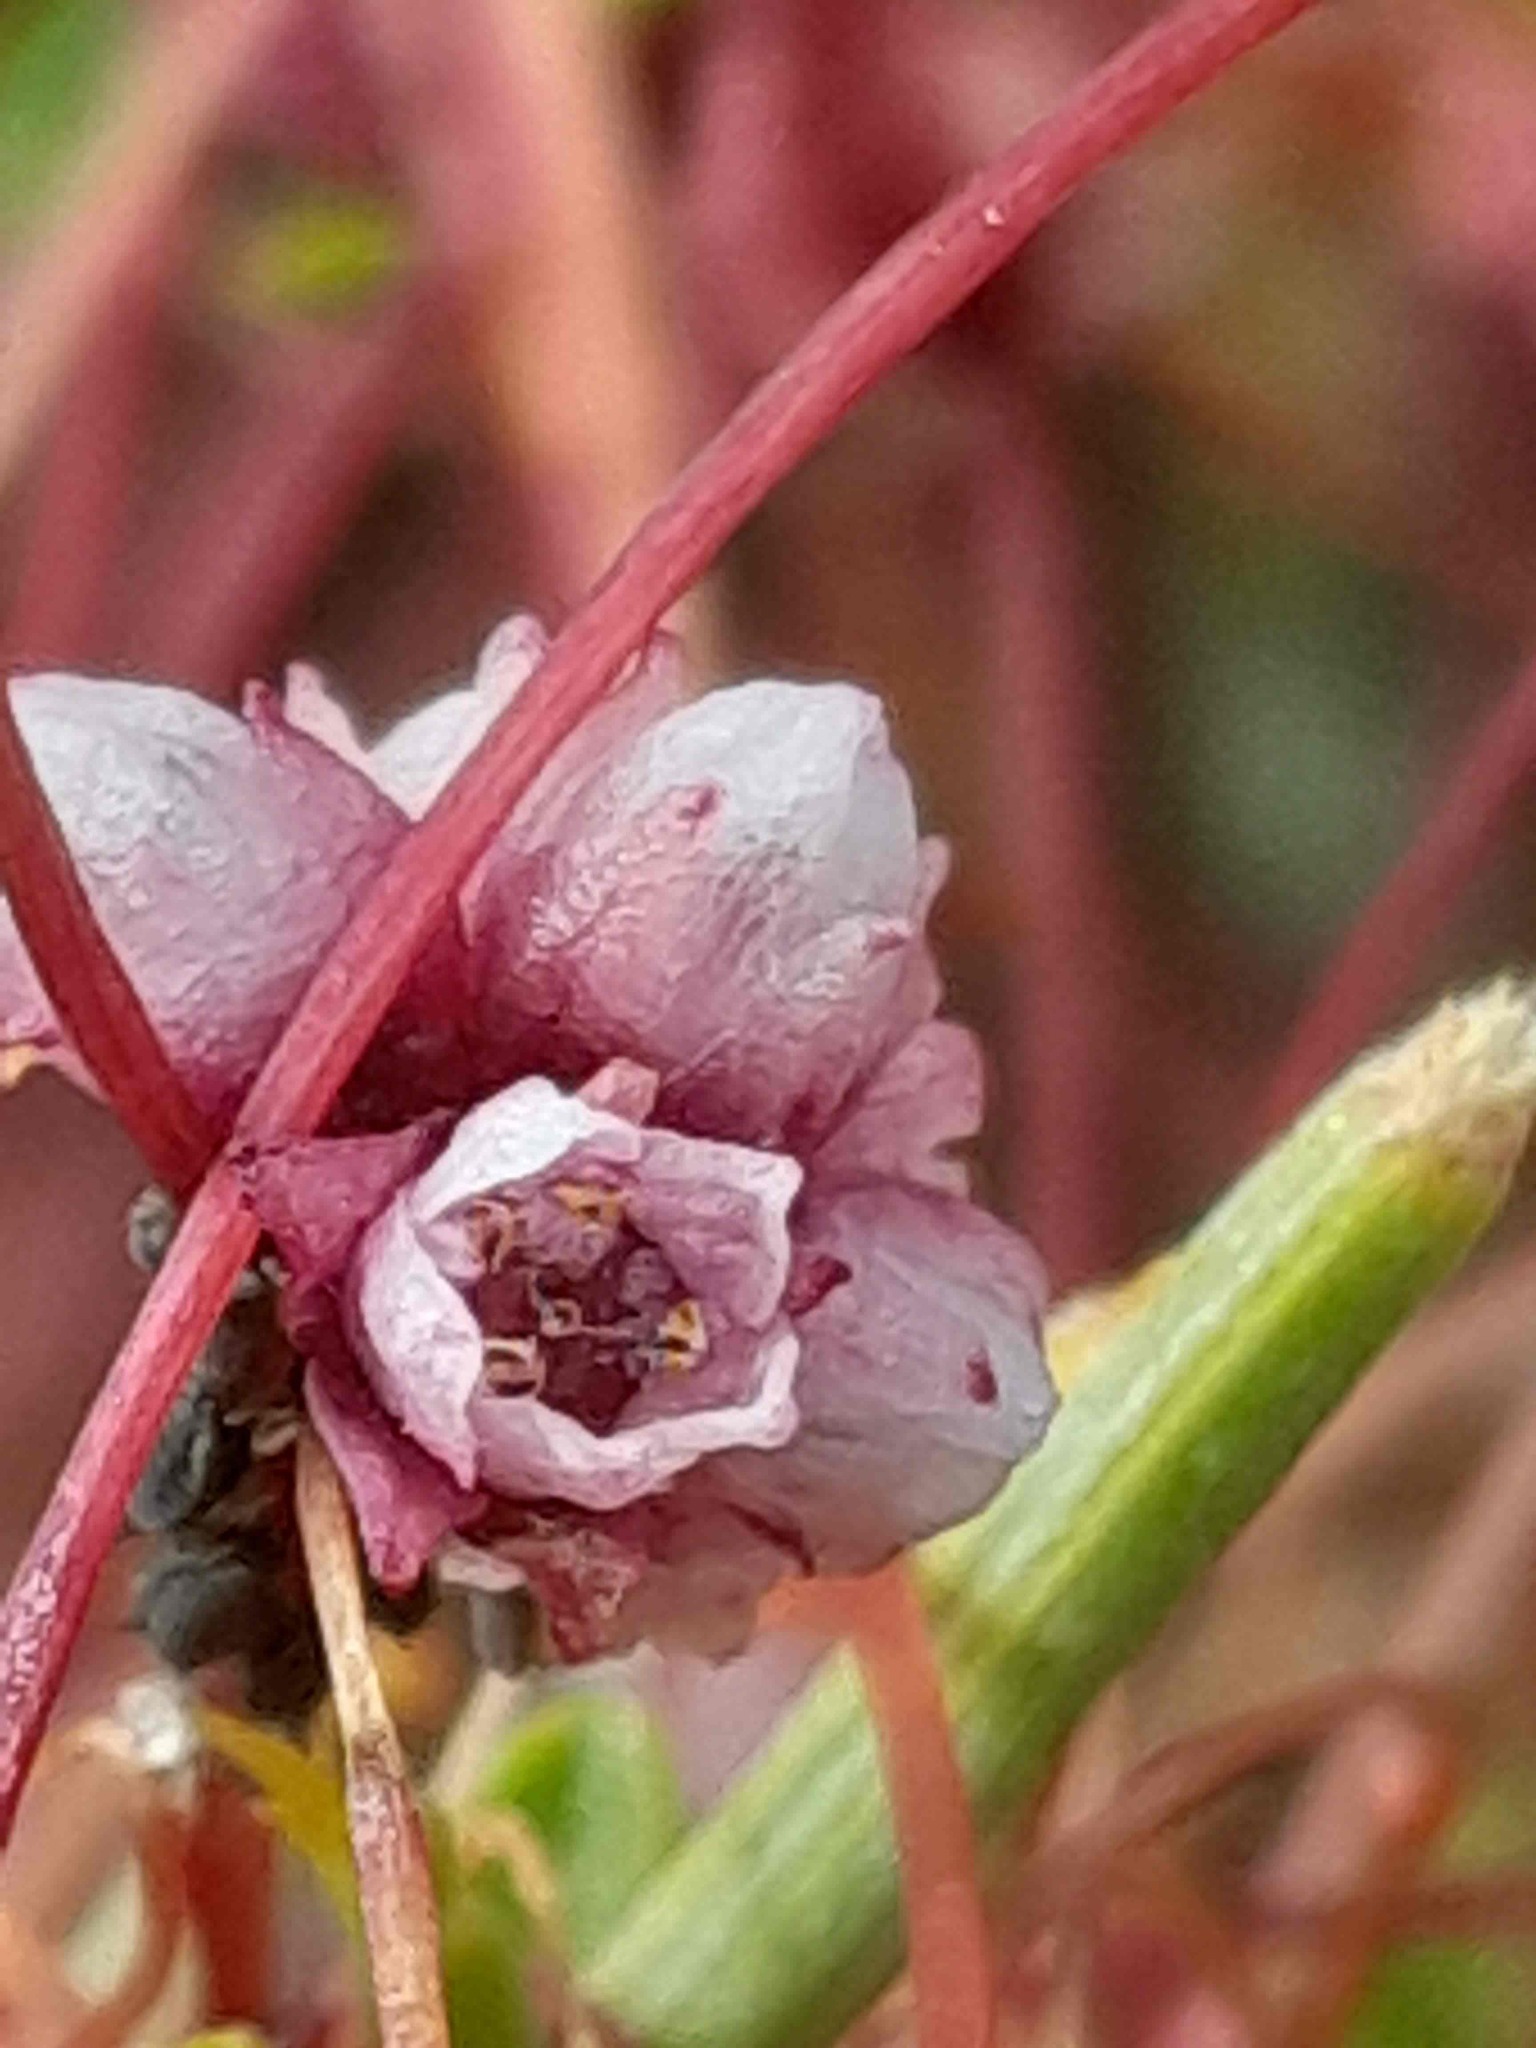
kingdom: Plantae
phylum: Tracheophyta
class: Magnoliopsida
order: Solanales
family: Convolvulaceae
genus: Cuscuta
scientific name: Cuscuta epithymum
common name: Clover dodder
